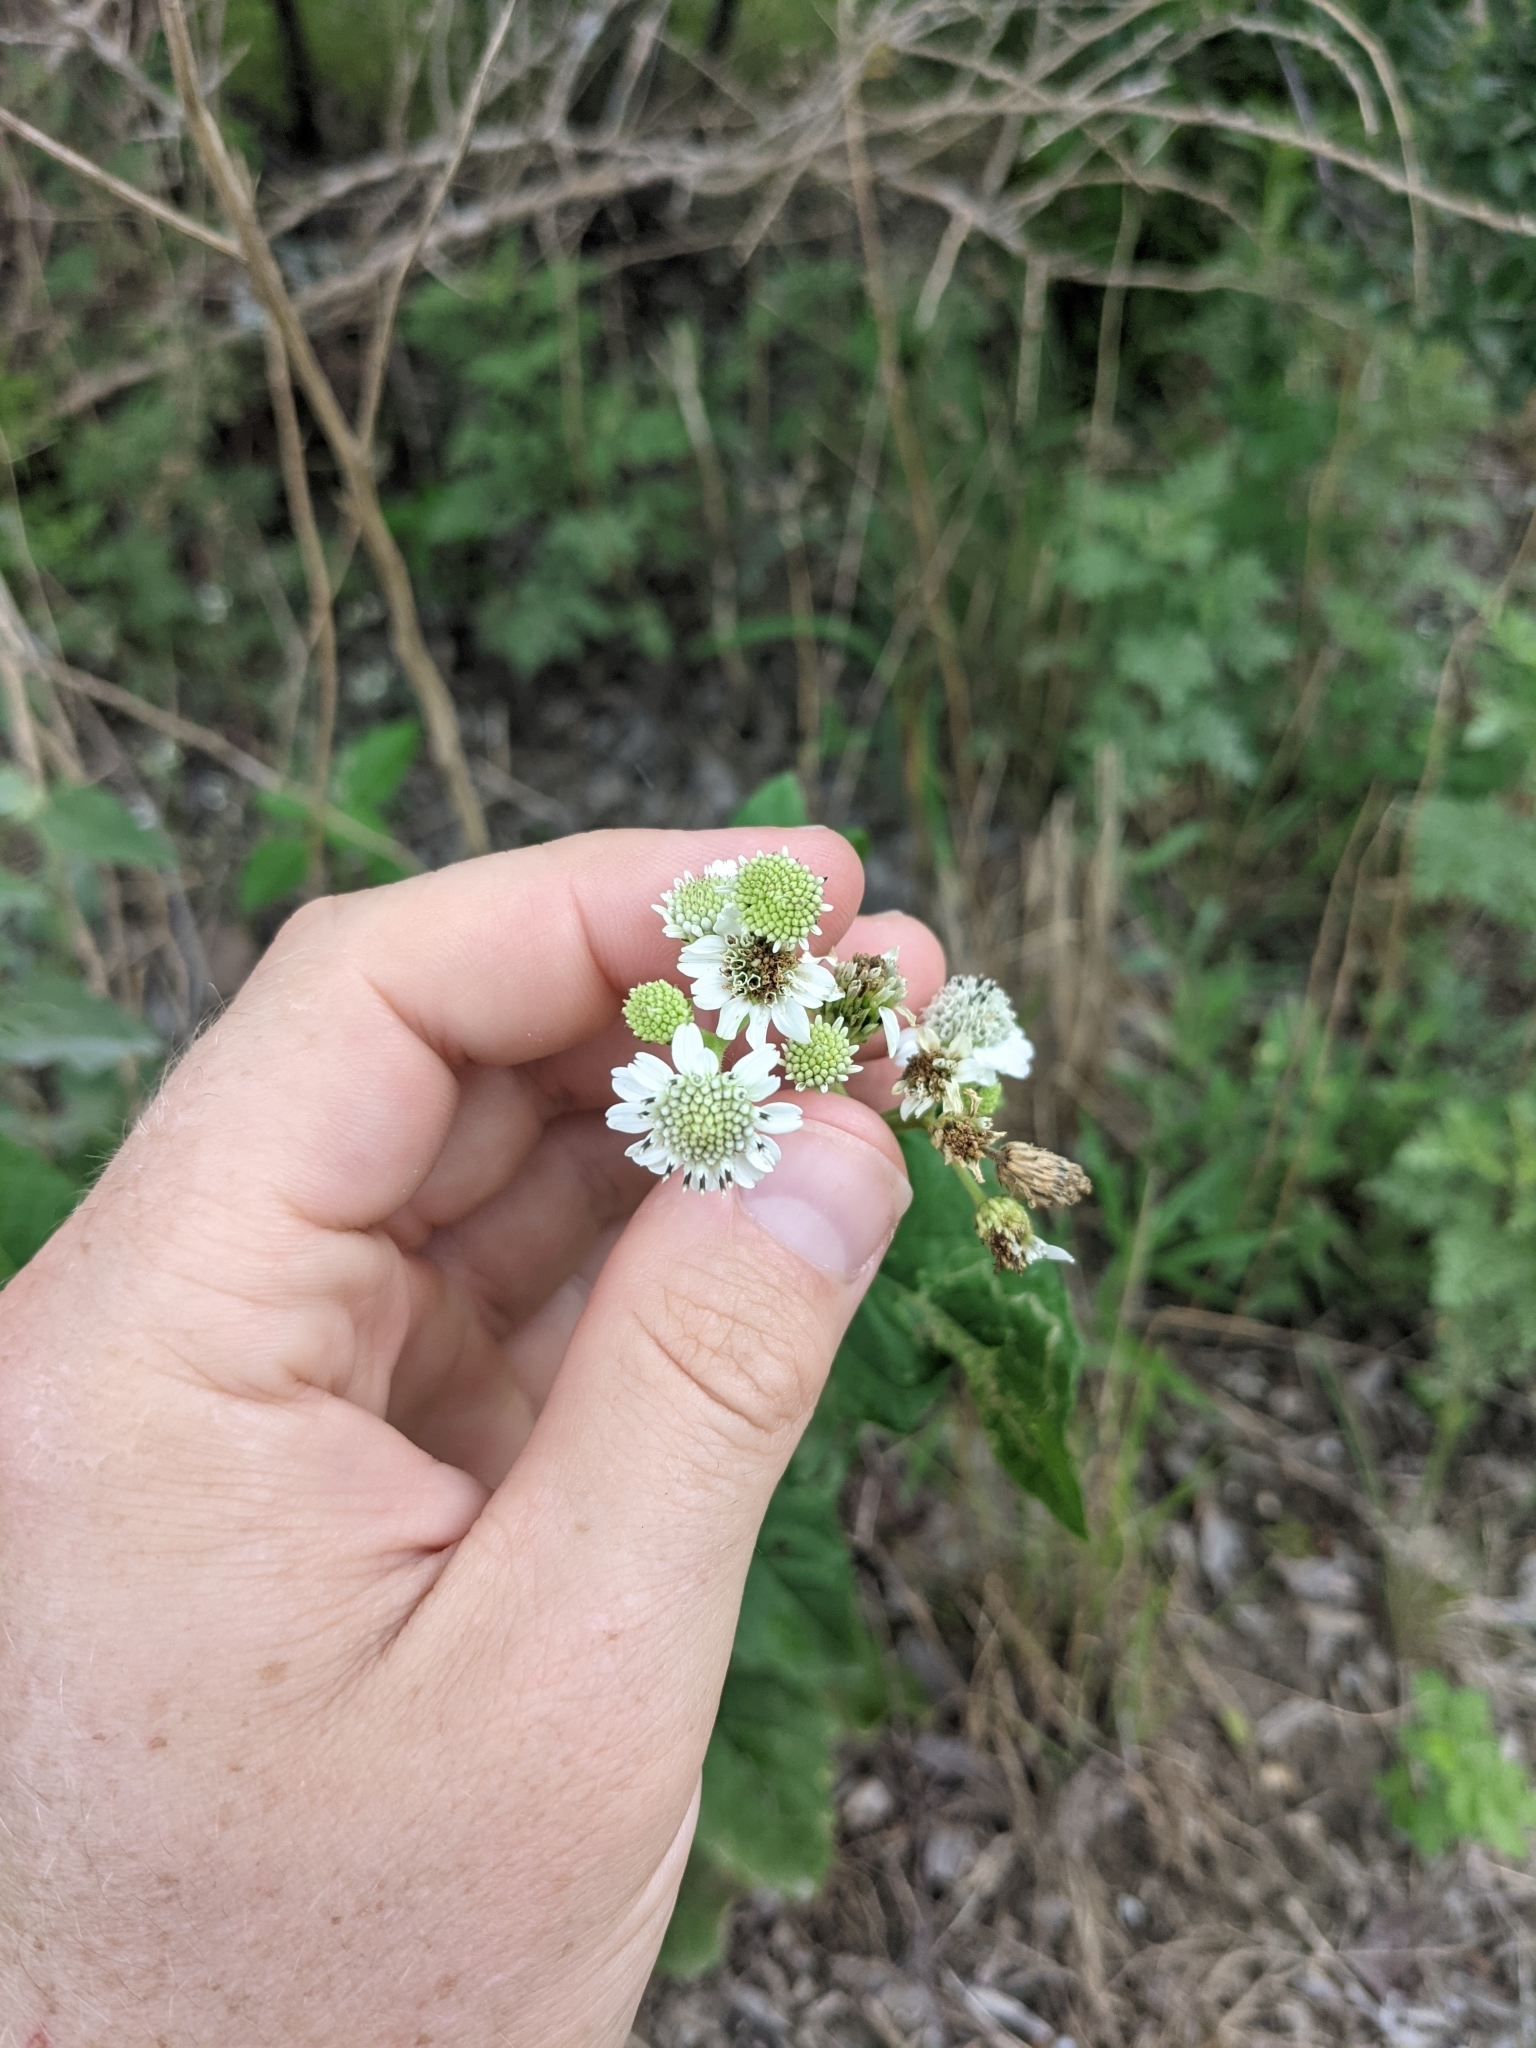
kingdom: Plantae
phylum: Tracheophyta
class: Magnoliopsida
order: Asterales
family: Asteraceae
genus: Verbesina
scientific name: Verbesina microptera
